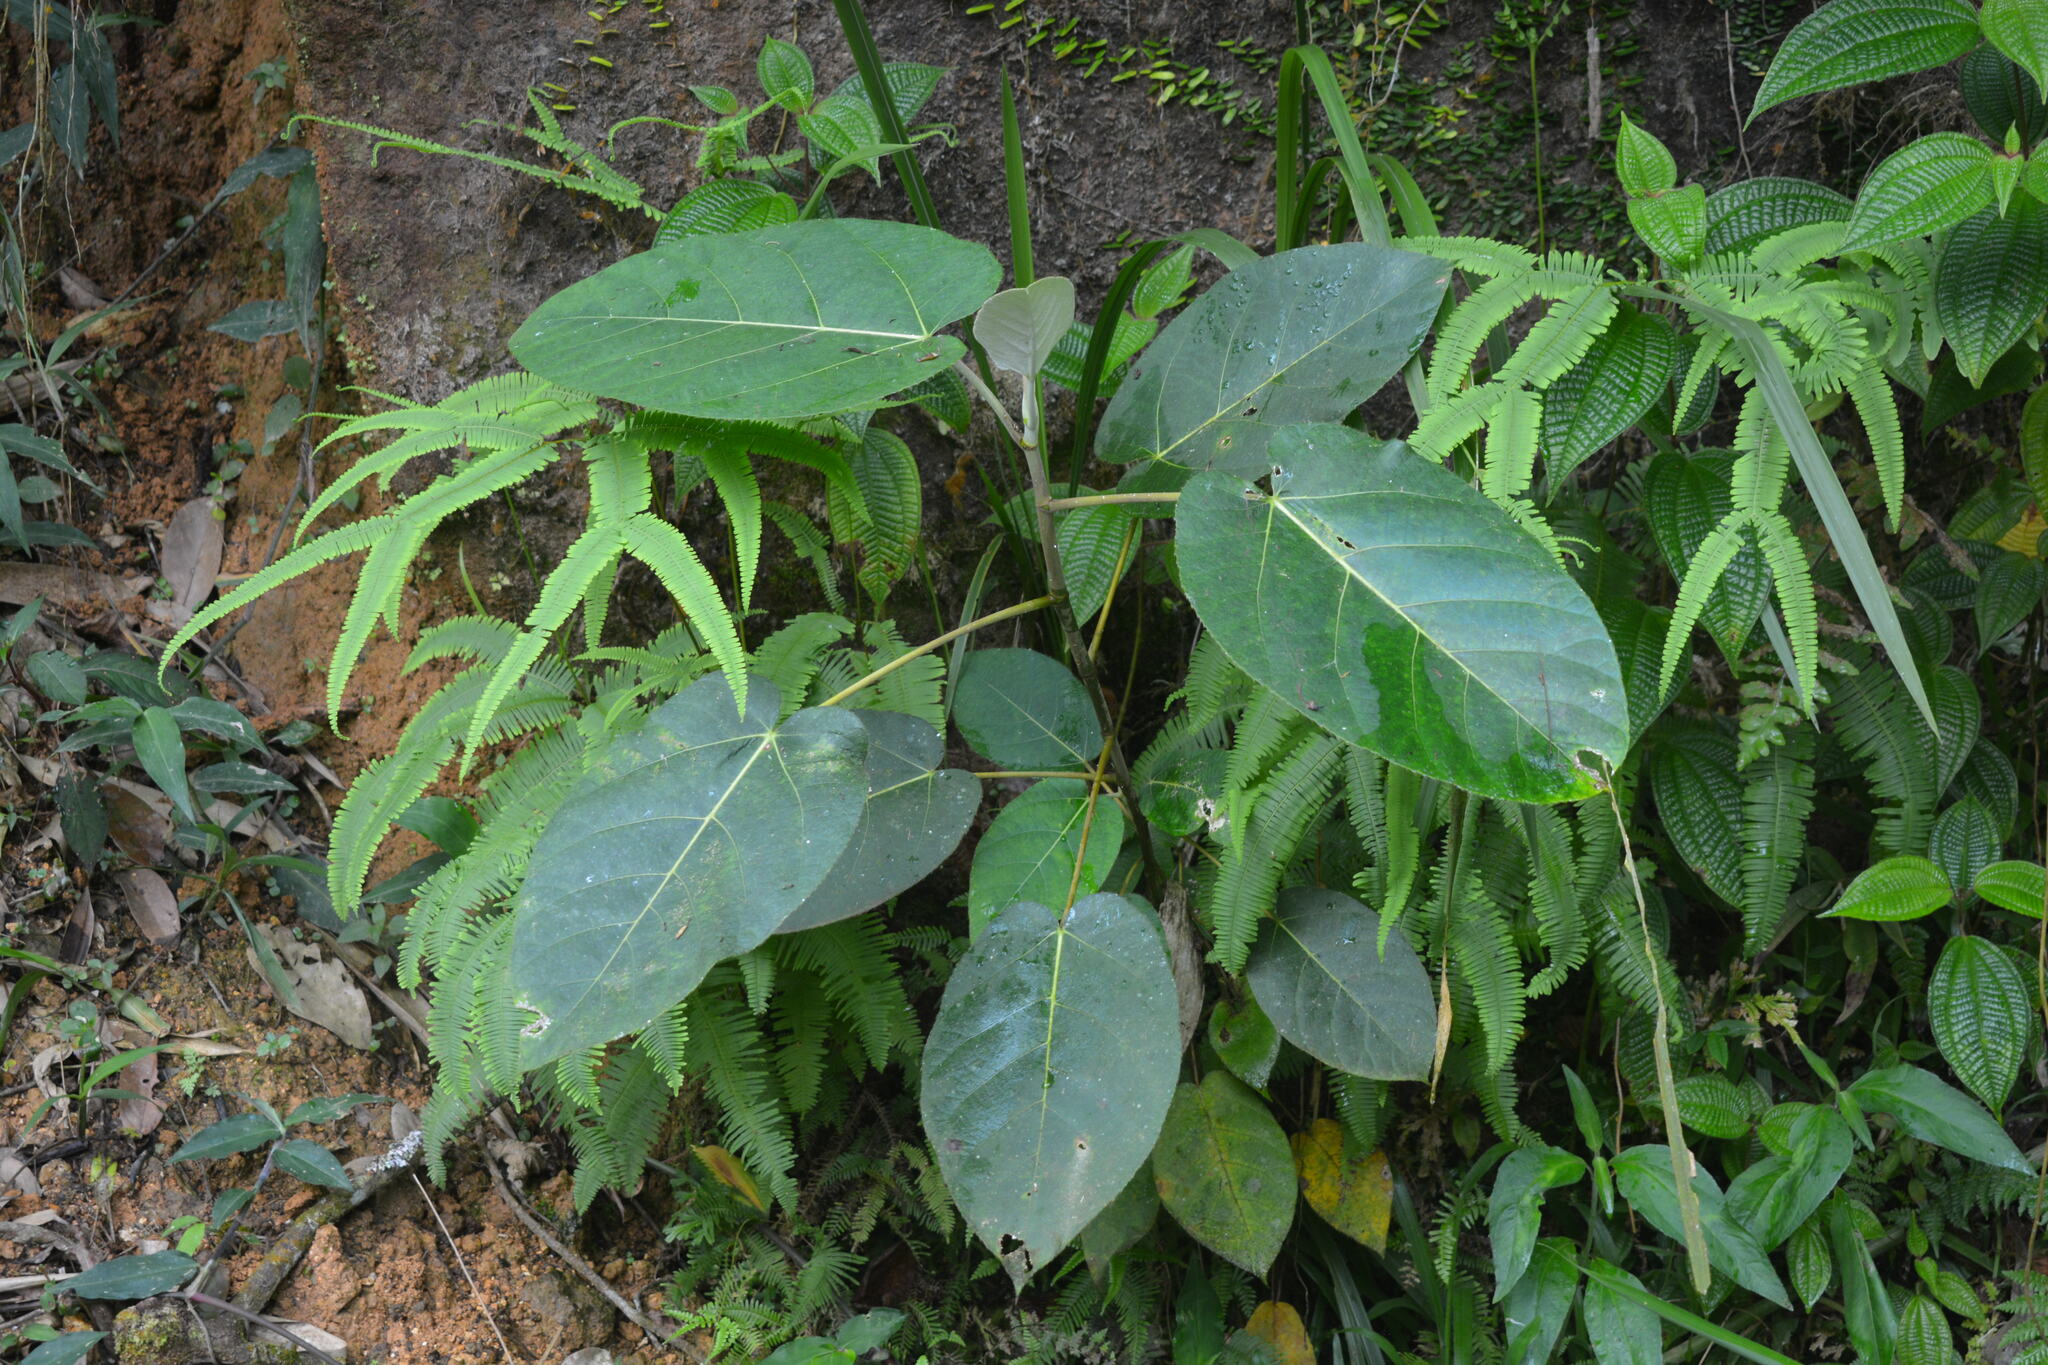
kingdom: Plantae
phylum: Tracheophyta
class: Magnoliopsida
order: Rosales
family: Moraceae
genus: Ficus
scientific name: Ficus padana
